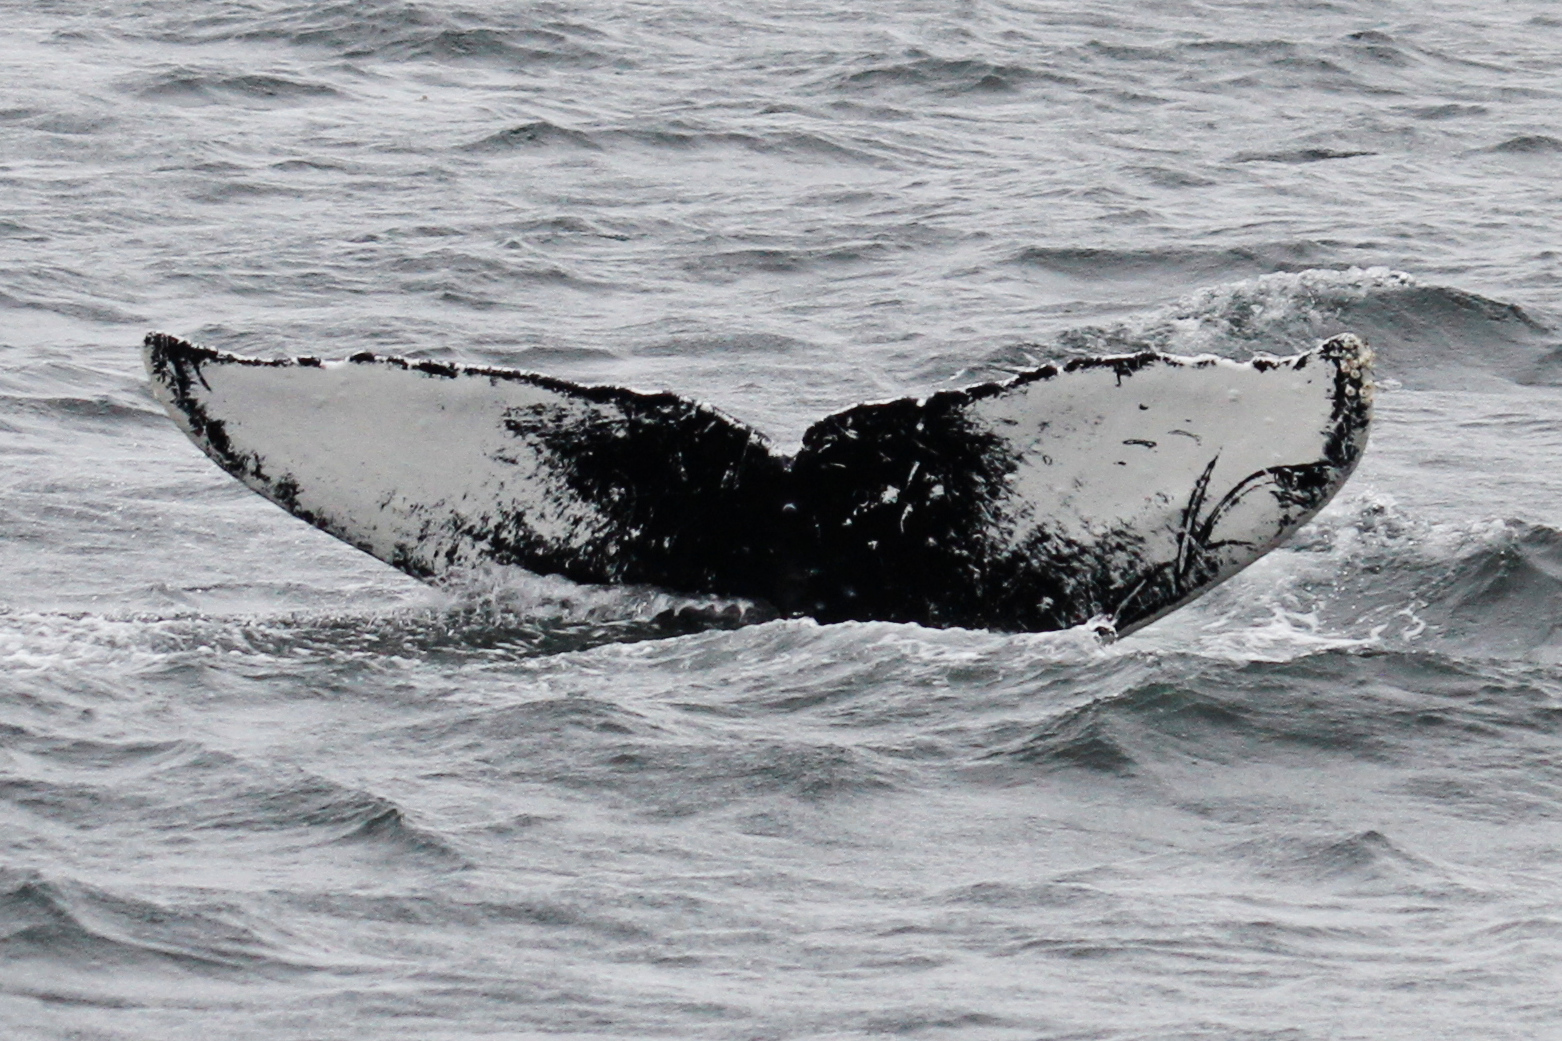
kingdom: Animalia
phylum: Chordata
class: Mammalia
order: Cetacea
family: Balaenopteridae
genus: Megaptera
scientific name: Megaptera novaeangliae
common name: Humpback whale
